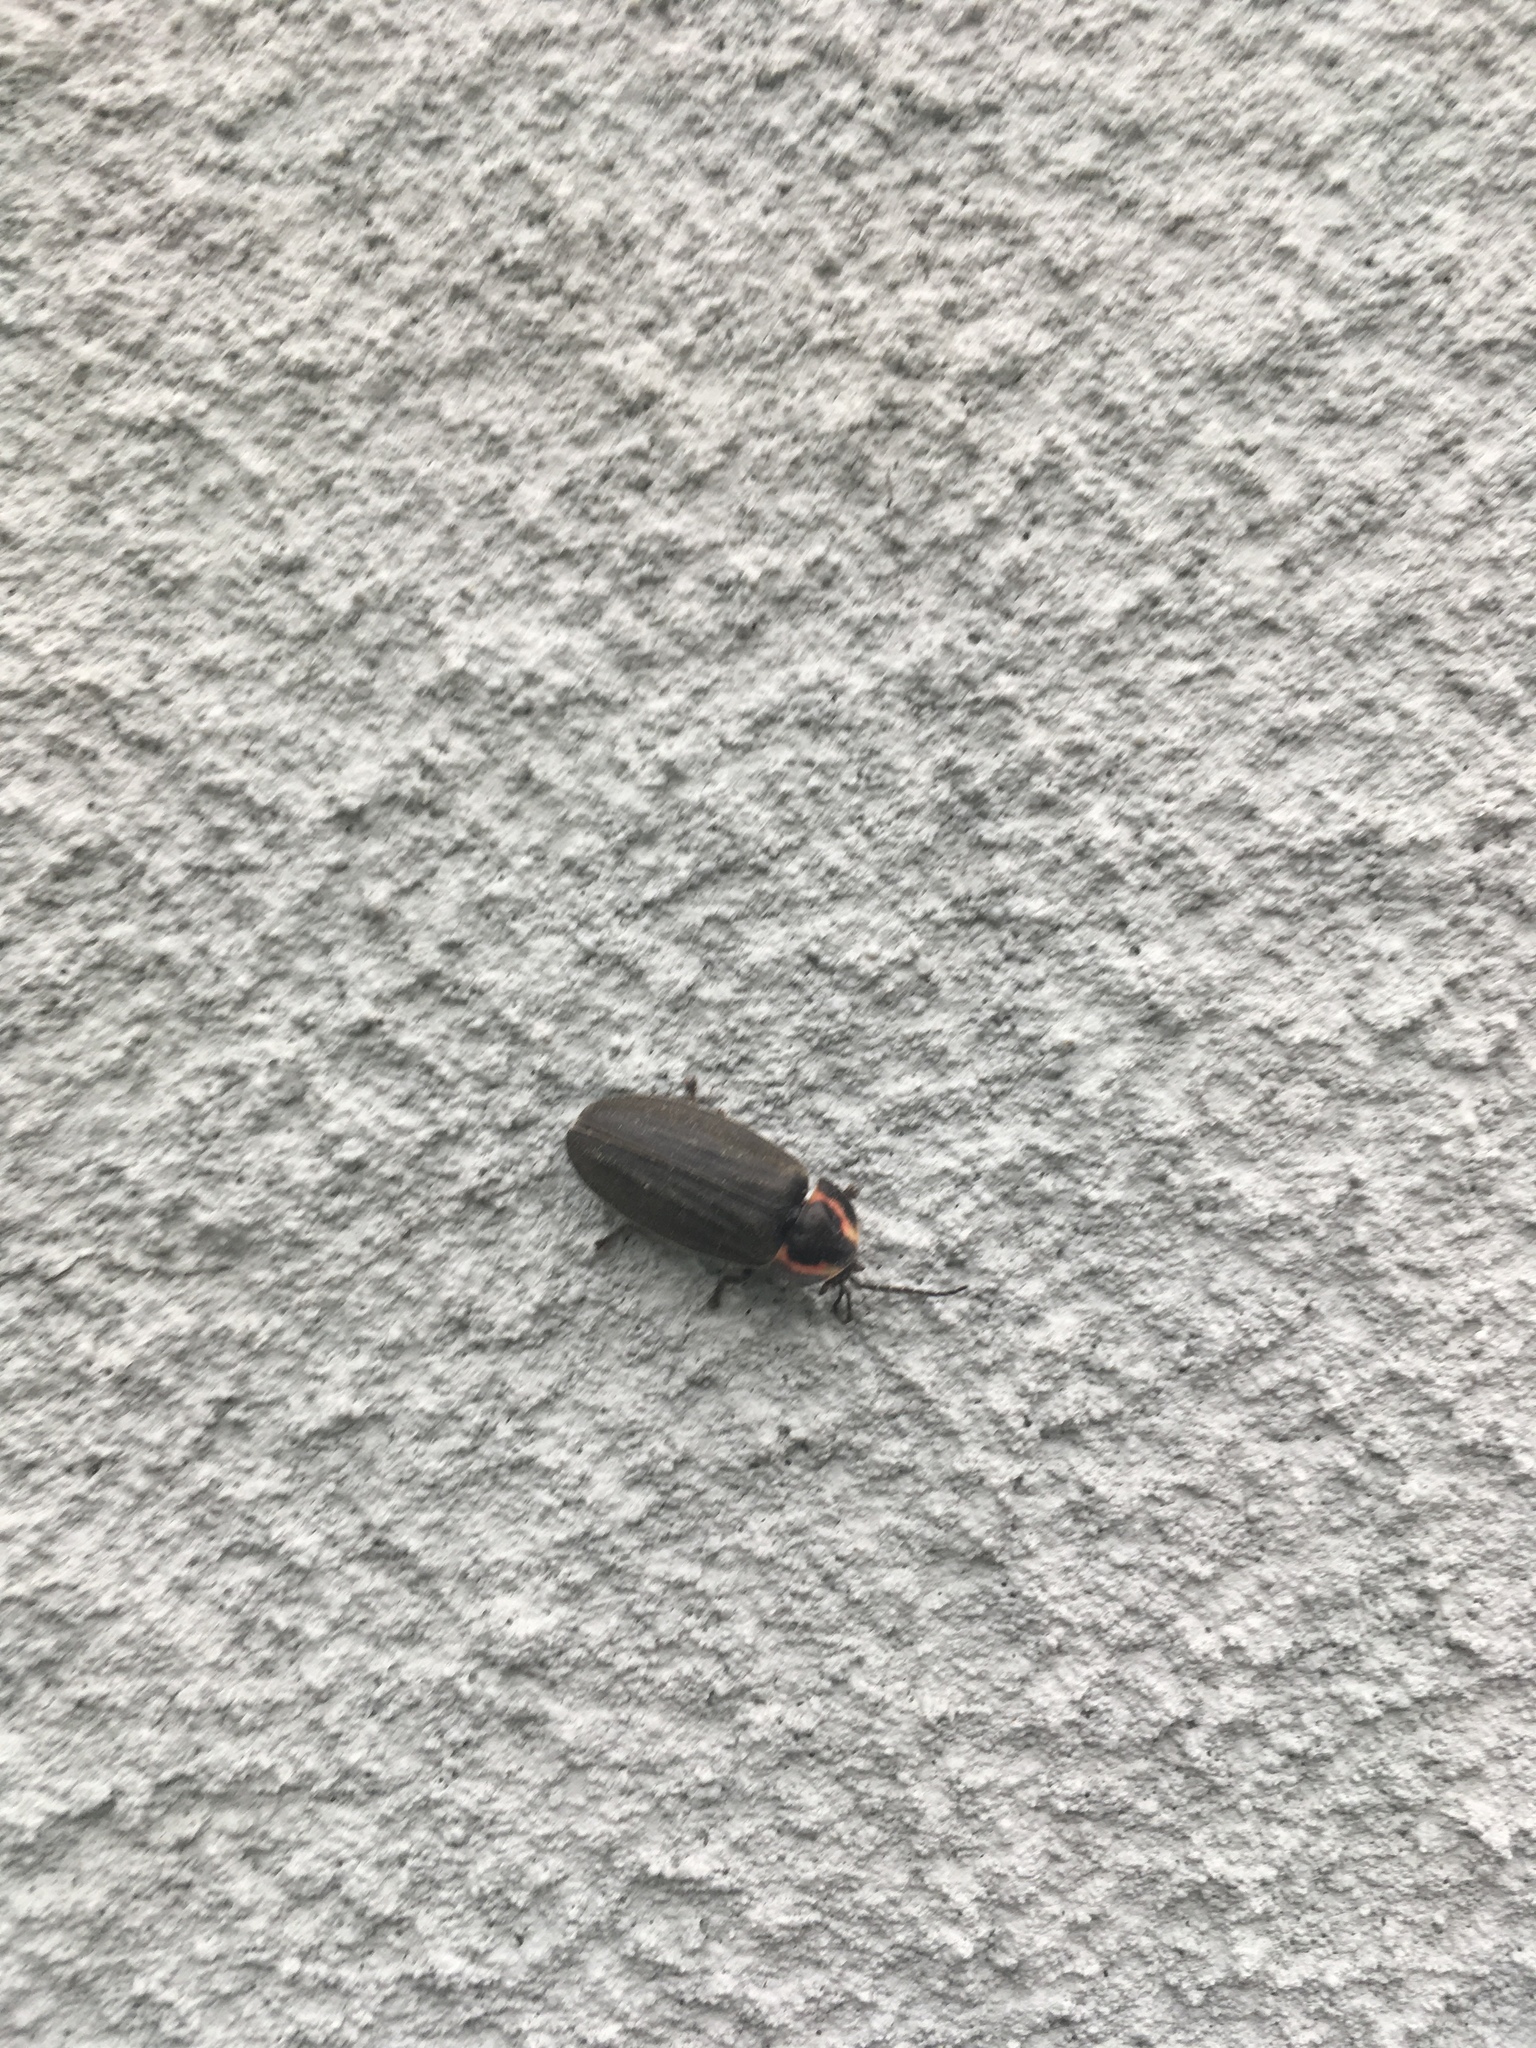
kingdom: Animalia
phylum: Arthropoda
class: Insecta
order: Coleoptera
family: Lampyridae
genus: Photinus
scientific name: Photinus corrusca
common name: Winter firefly
